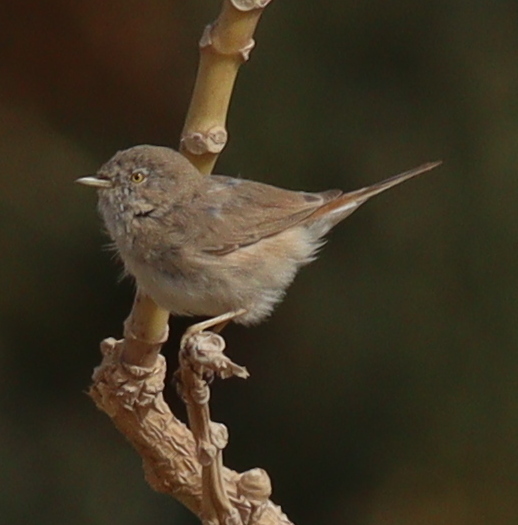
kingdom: Animalia
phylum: Chordata
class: Aves
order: Passeriformes
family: Sylviidae
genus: Sylvia
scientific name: Sylvia nana
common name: Asian desert warbler
